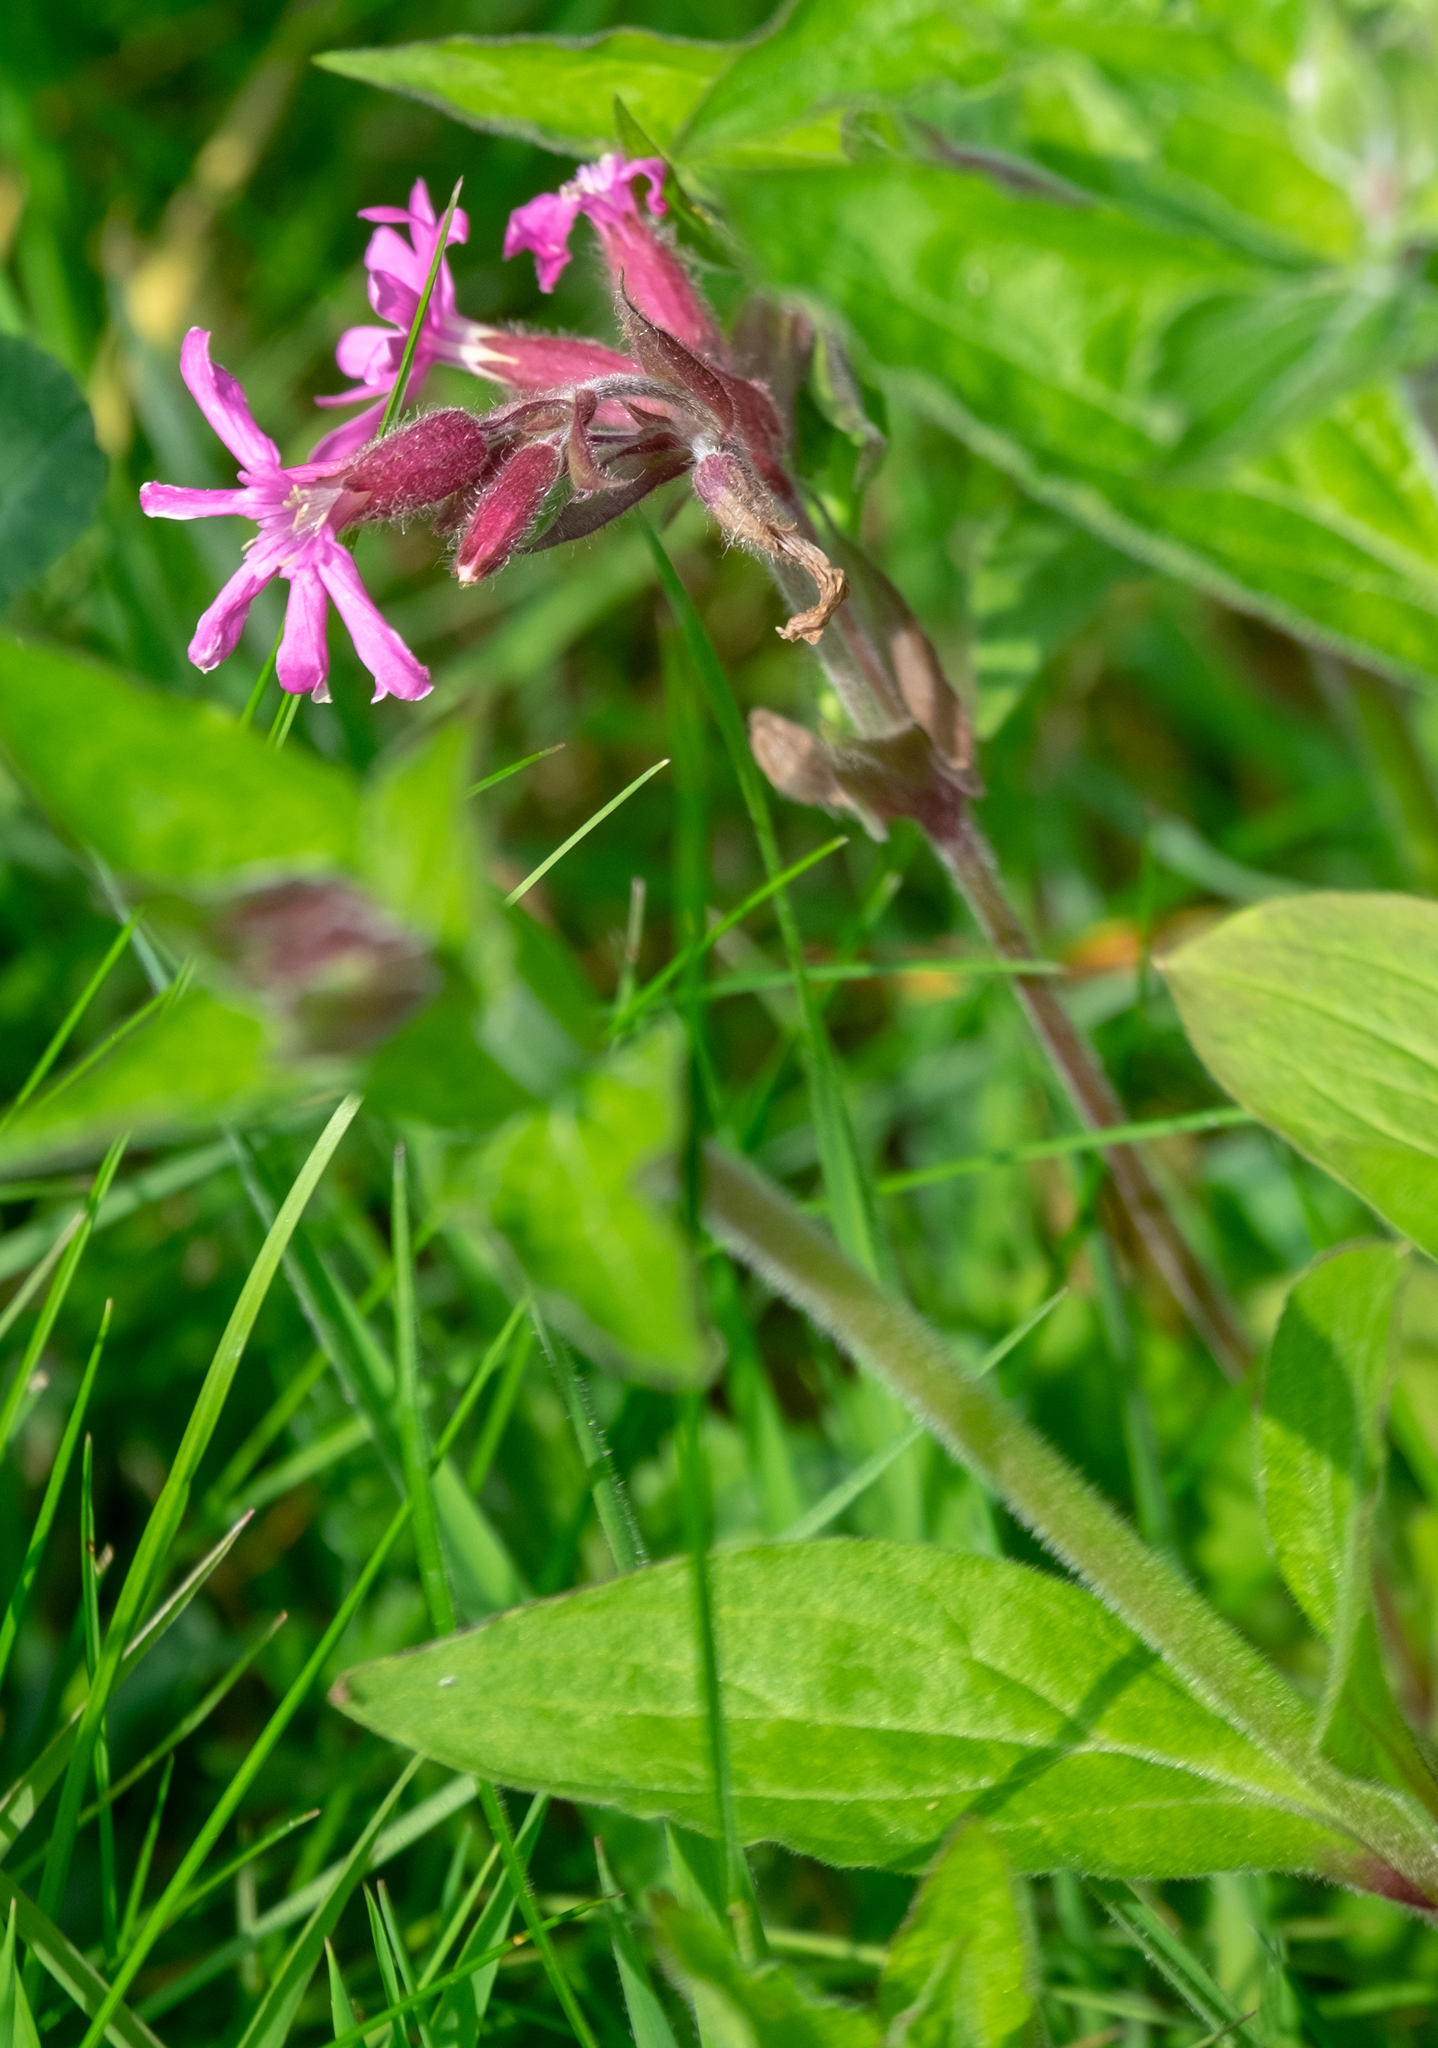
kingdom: Plantae
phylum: Tracheophyta
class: Magnoliopsida
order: Caryophyllales
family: Caryophyllaceae
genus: Silene
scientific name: Silene dioica
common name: Red campion
